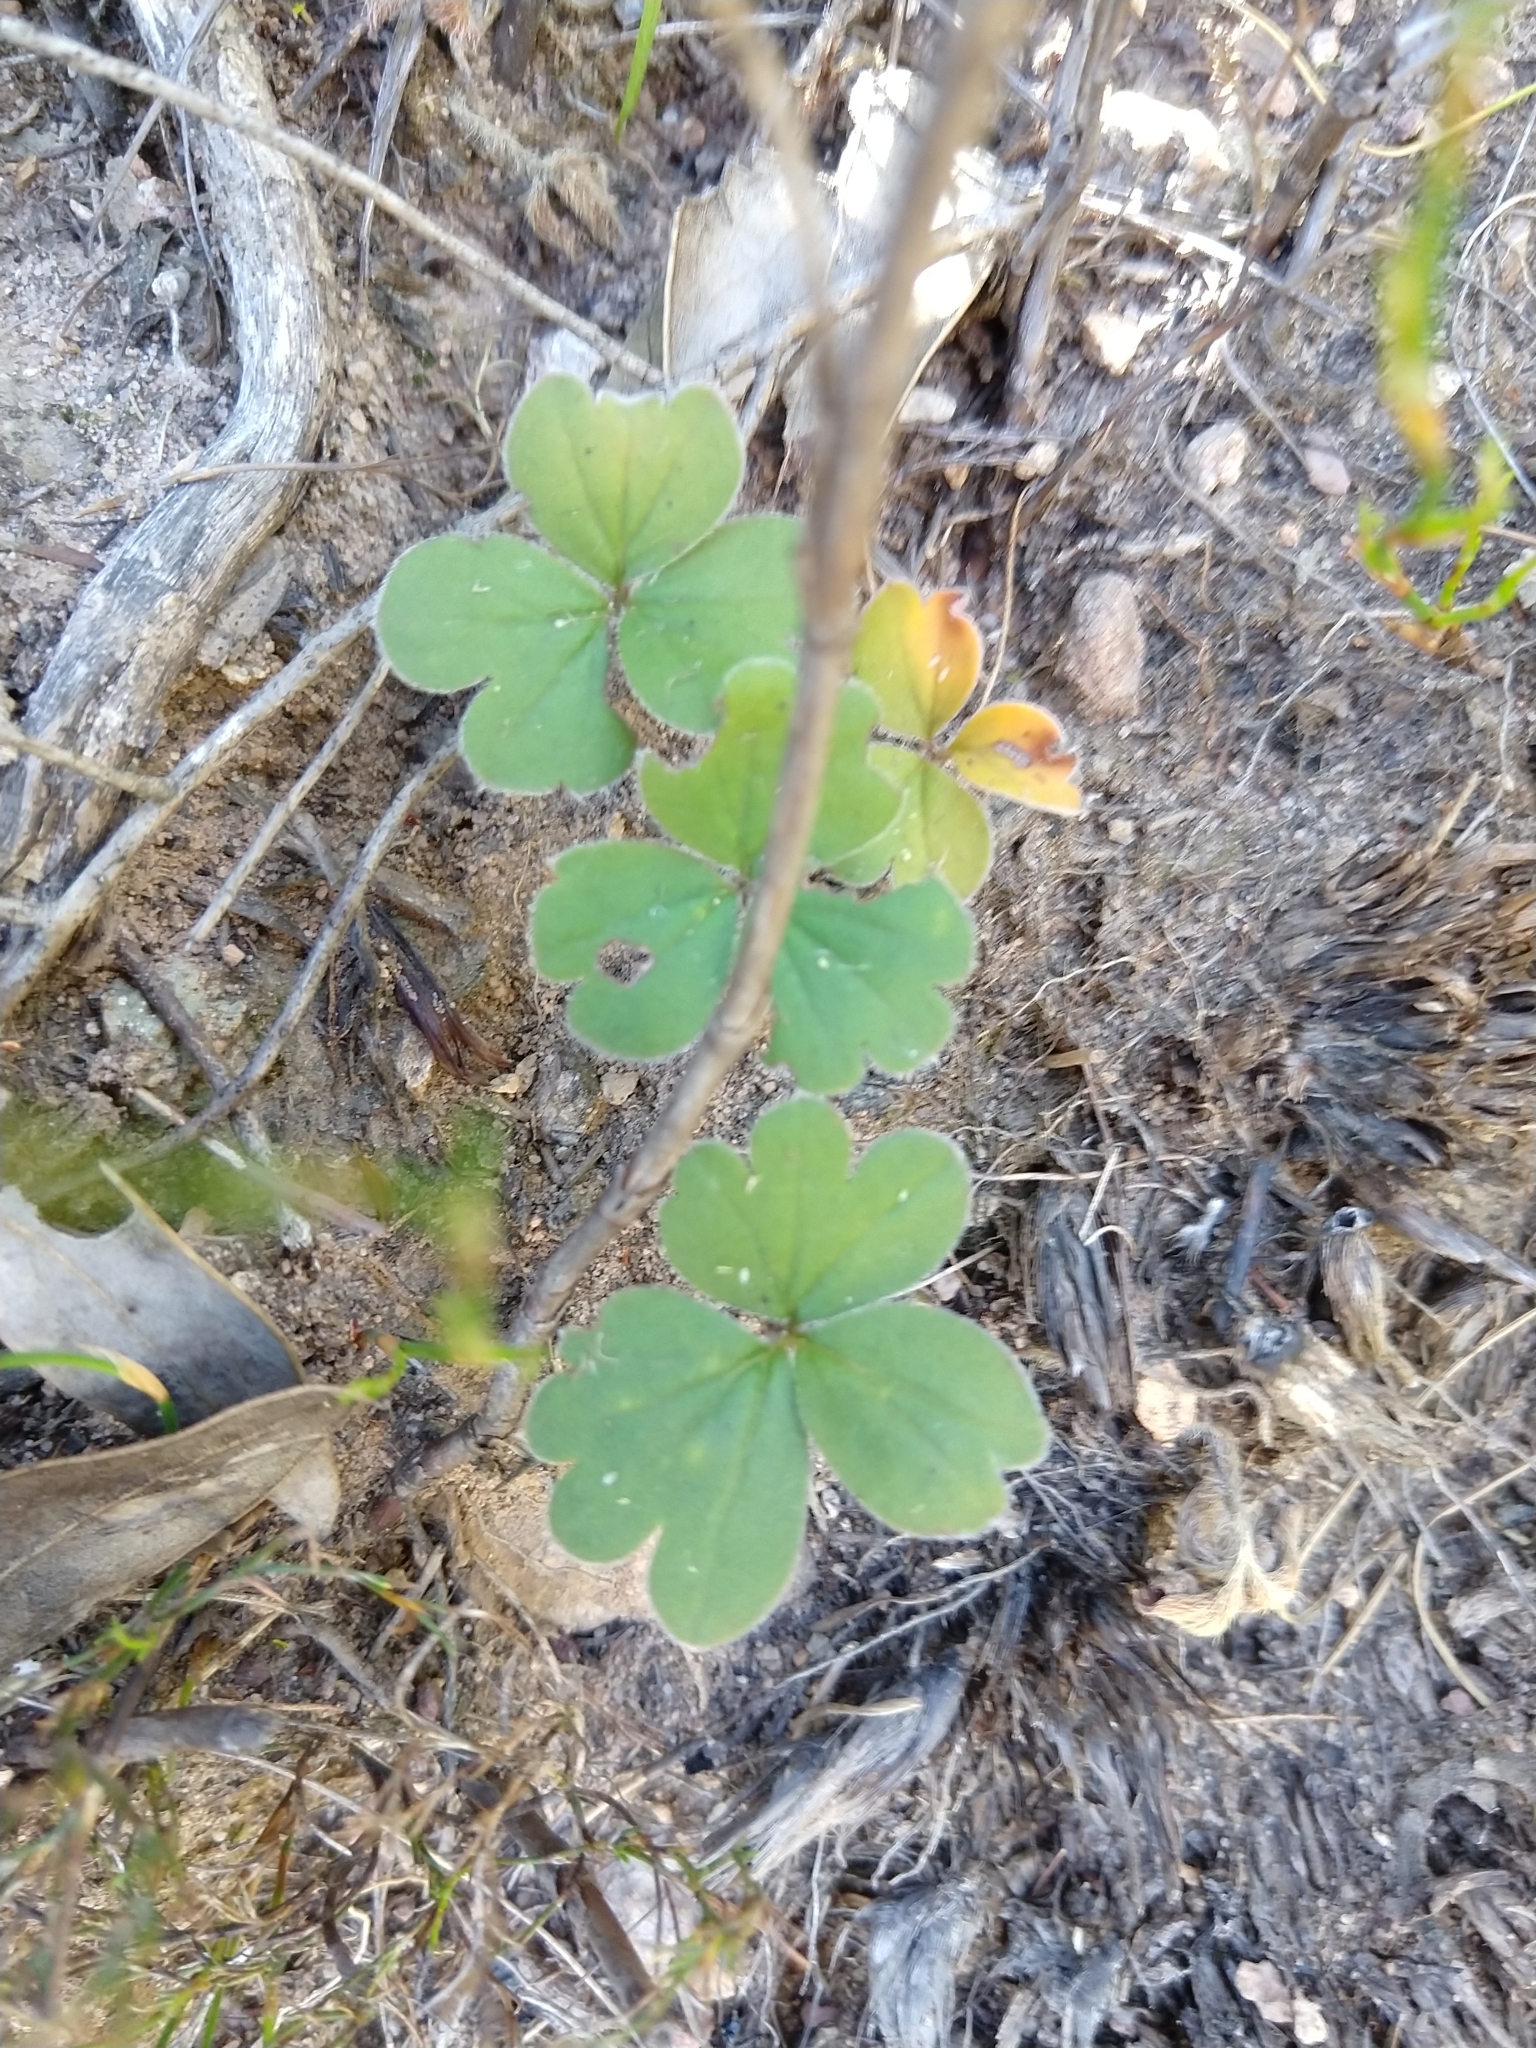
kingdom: Plantae
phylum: Tracheophyta
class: Magnoliopsida
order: Geraniales
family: Geraniaceae
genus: Pelargonium
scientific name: Pelargonium ternifolium
